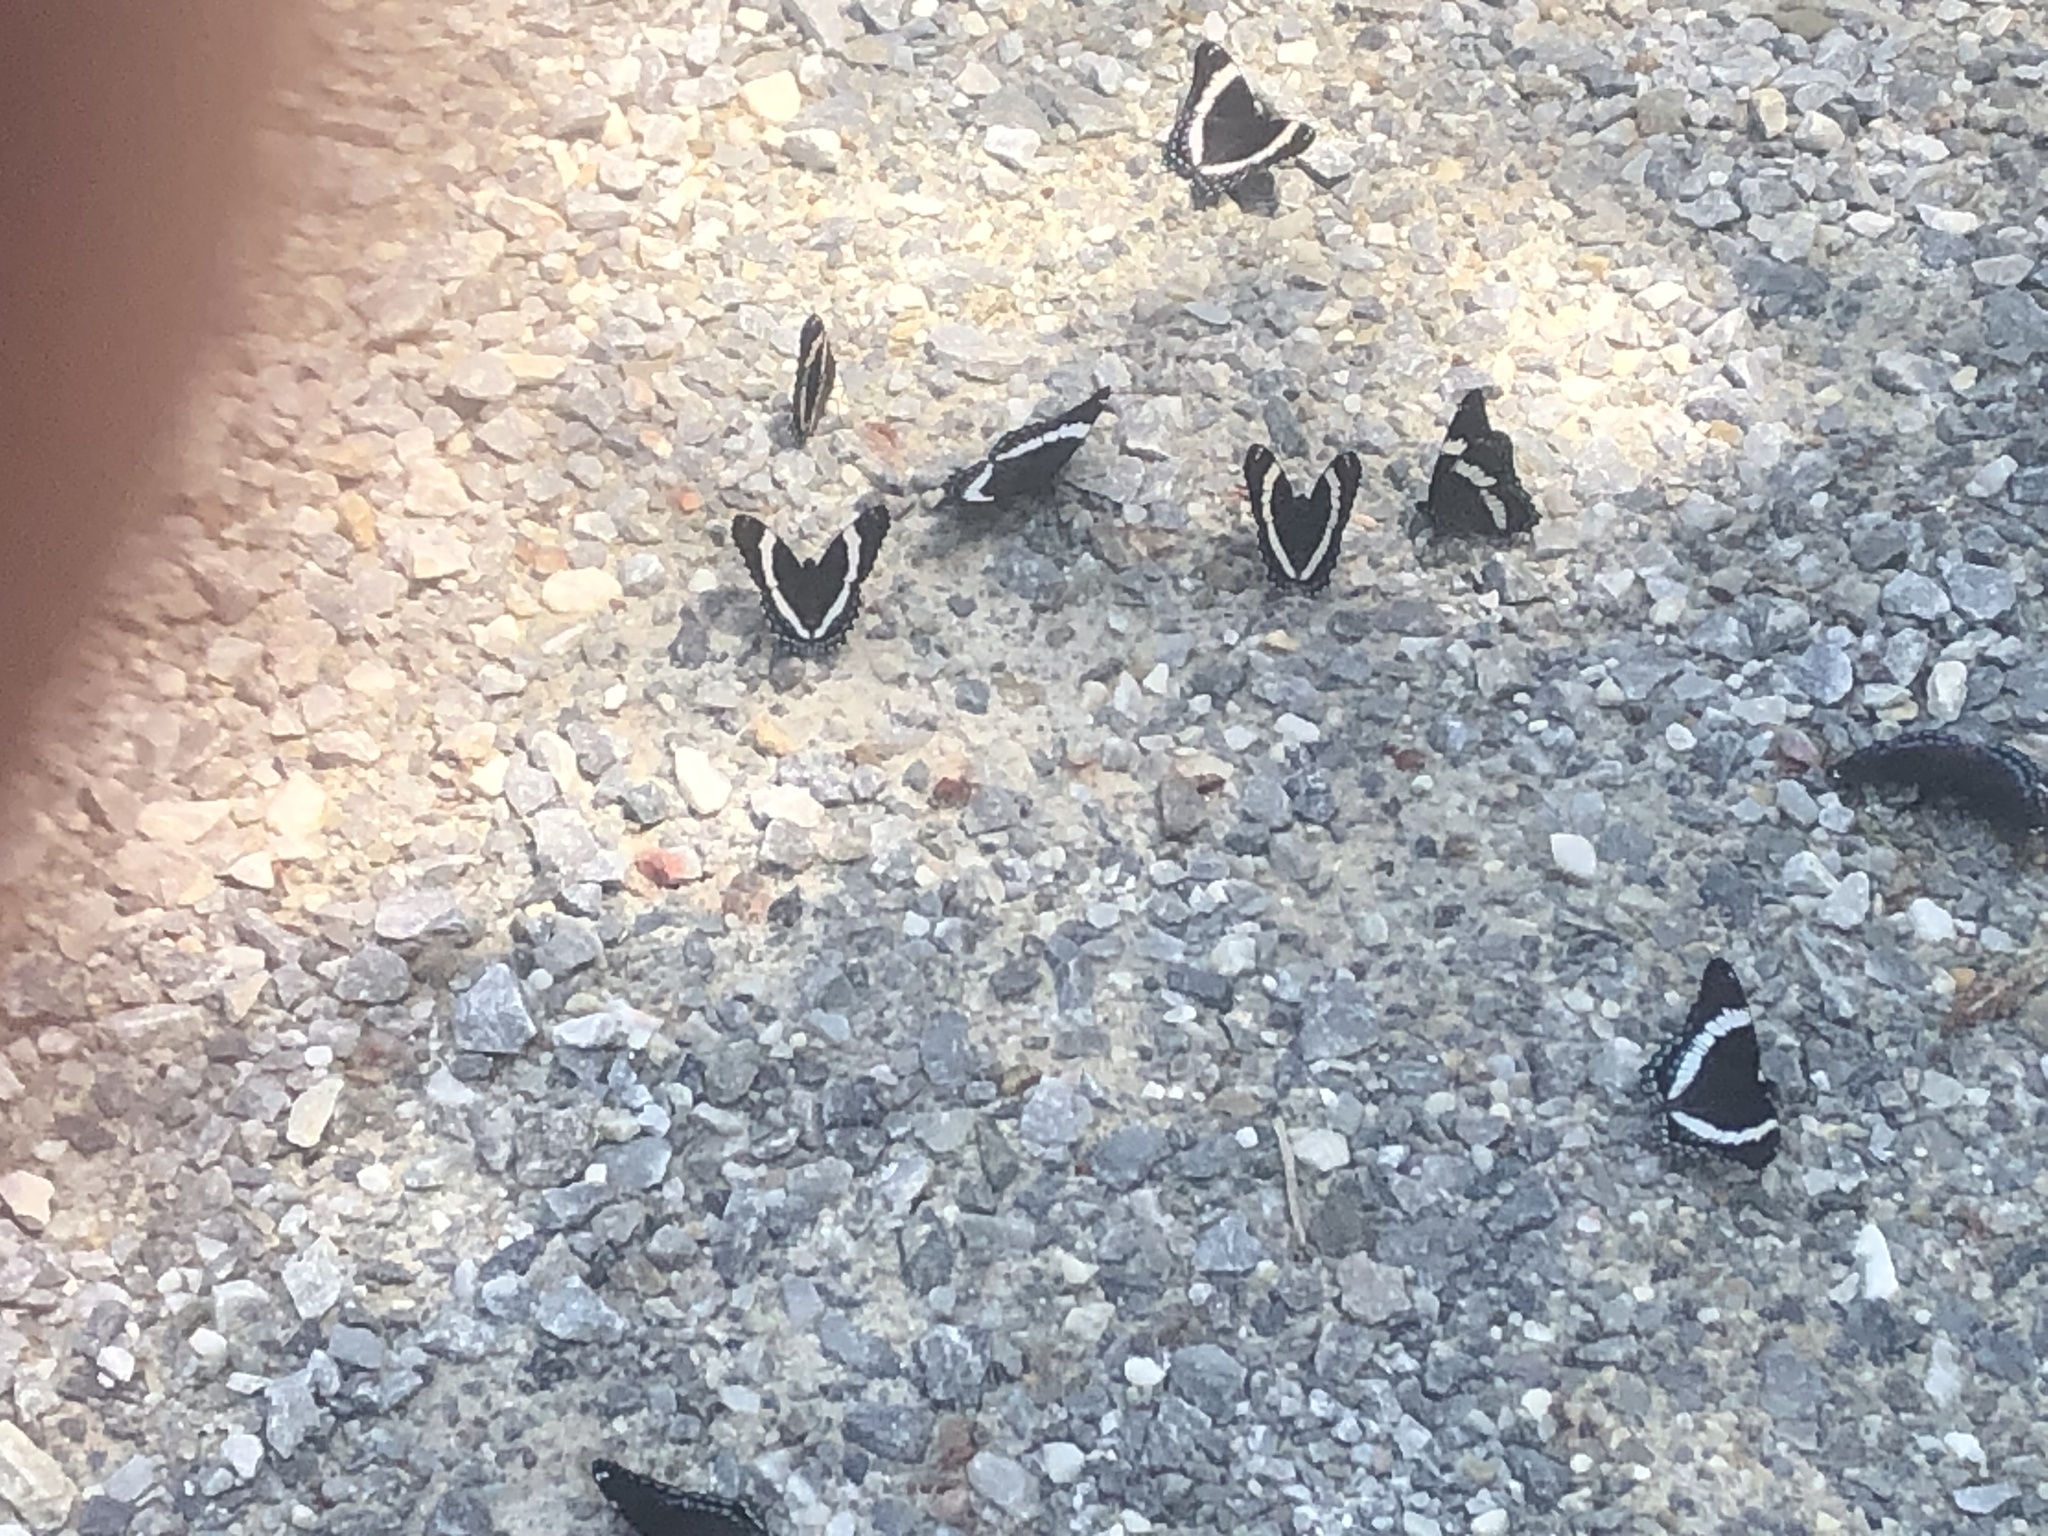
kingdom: Animalia
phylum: Arthropoda
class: Insecta
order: Lepidoptera
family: Nymphalidae
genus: Limenitis
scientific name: Limenitis arthemis
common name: Red-spotted admiral
